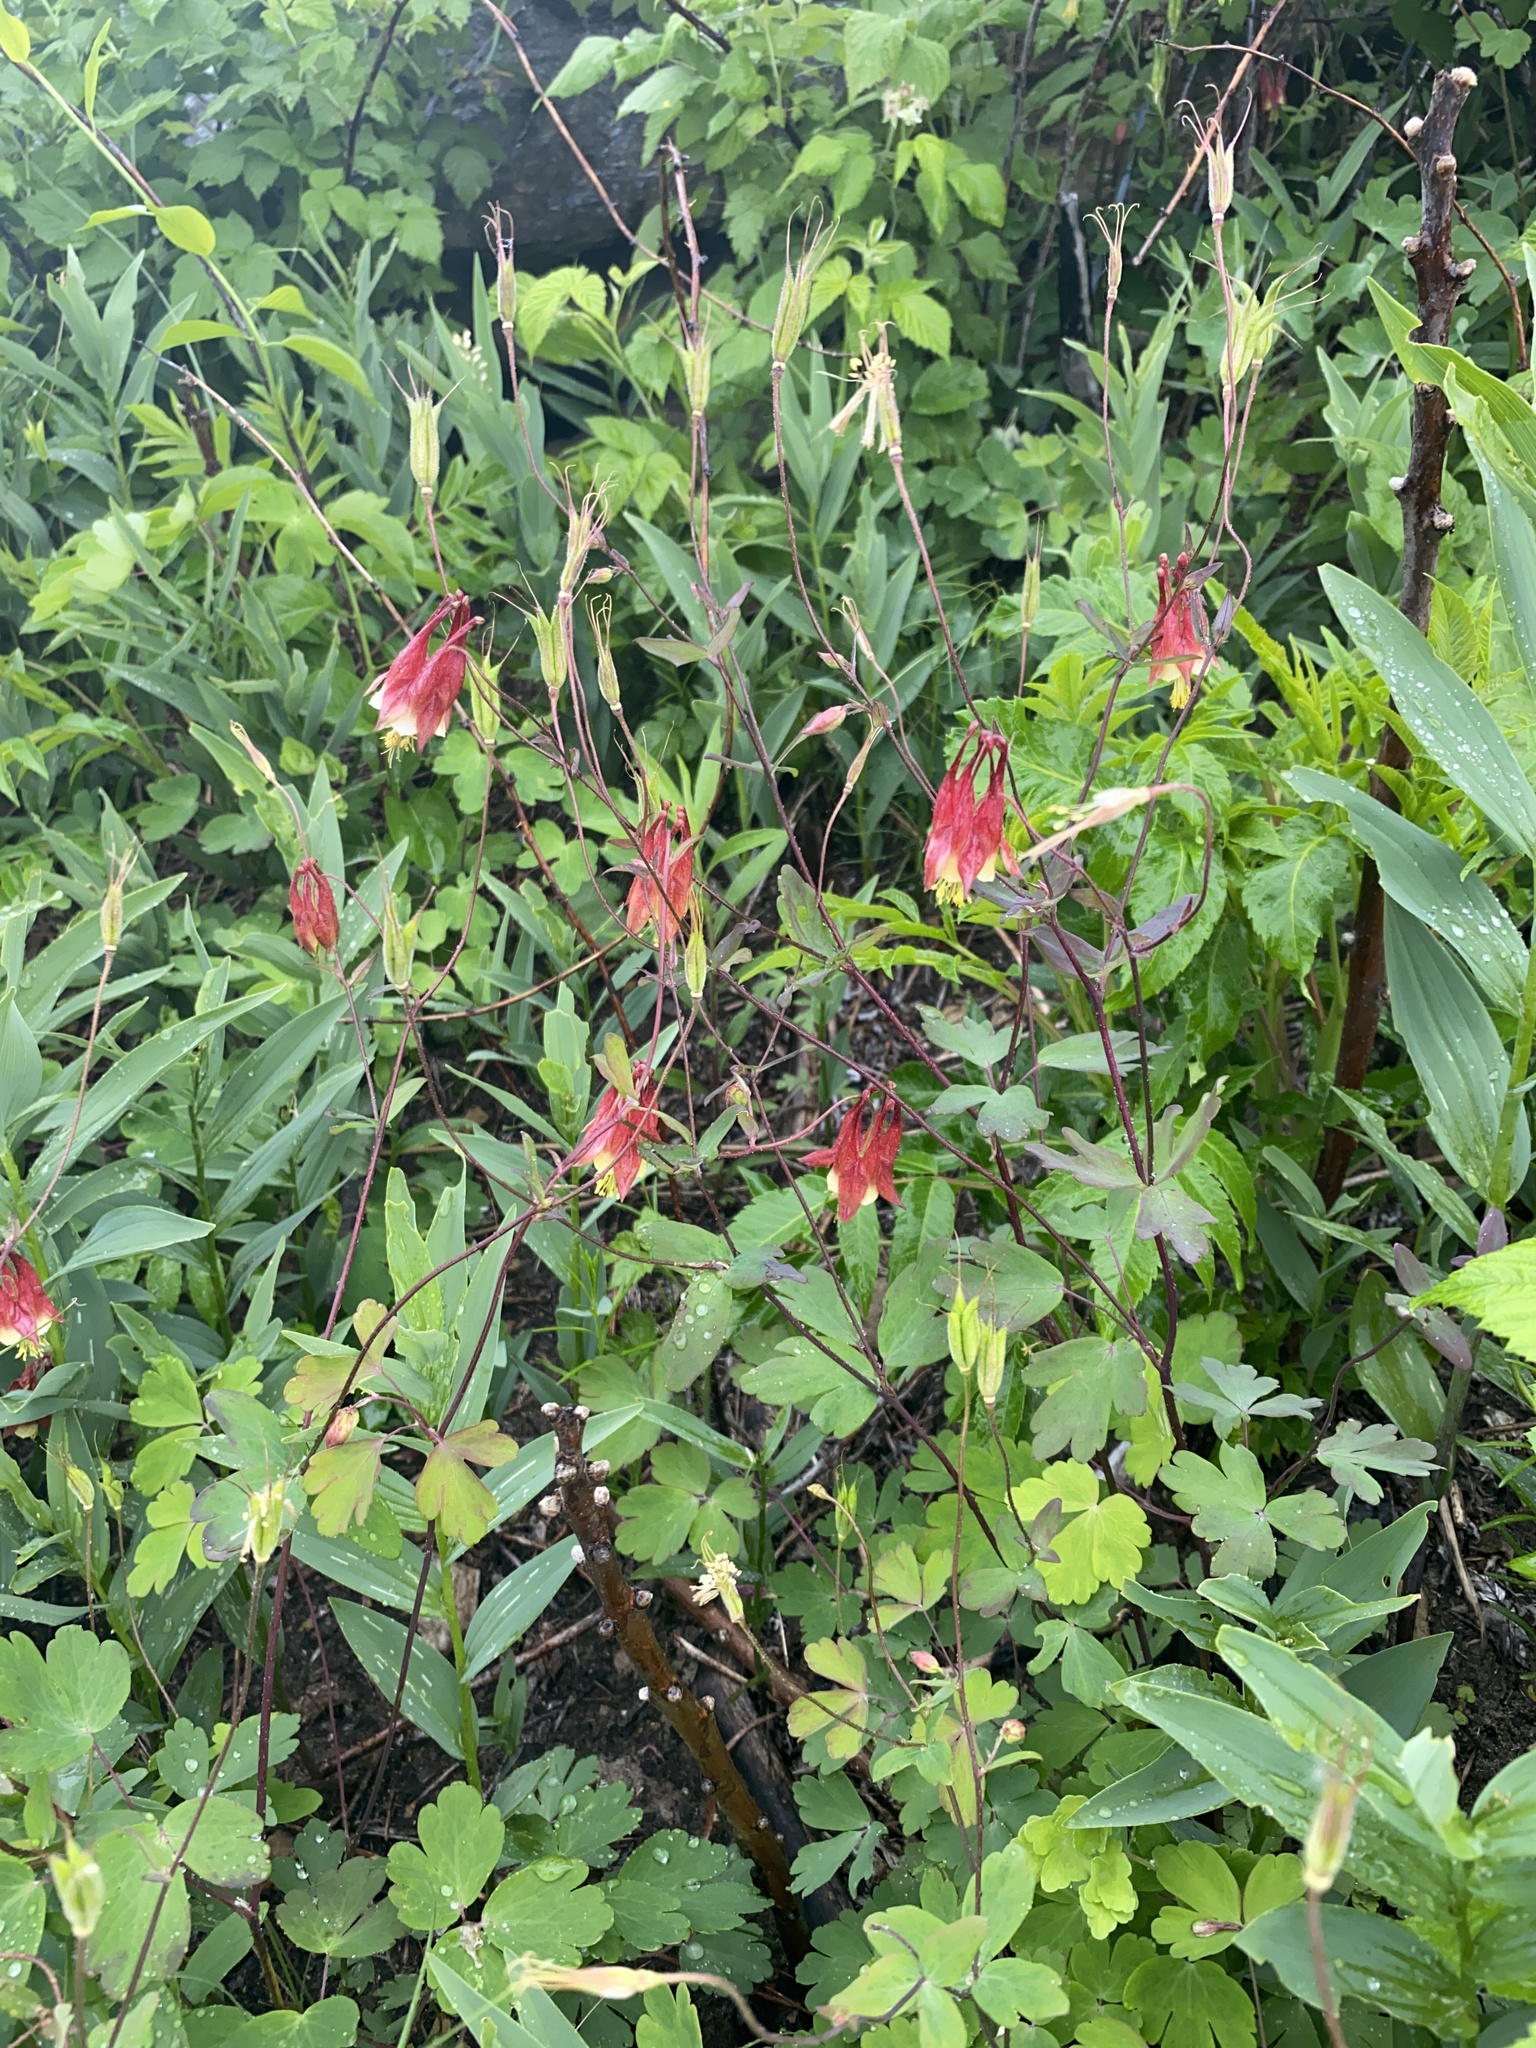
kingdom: Plantae
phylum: Tracheophyta
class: Magnoliopsida
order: Ranunculales
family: Ranunculaceae
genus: Aquilegia
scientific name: Aquilegia canadensis
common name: American columbine
